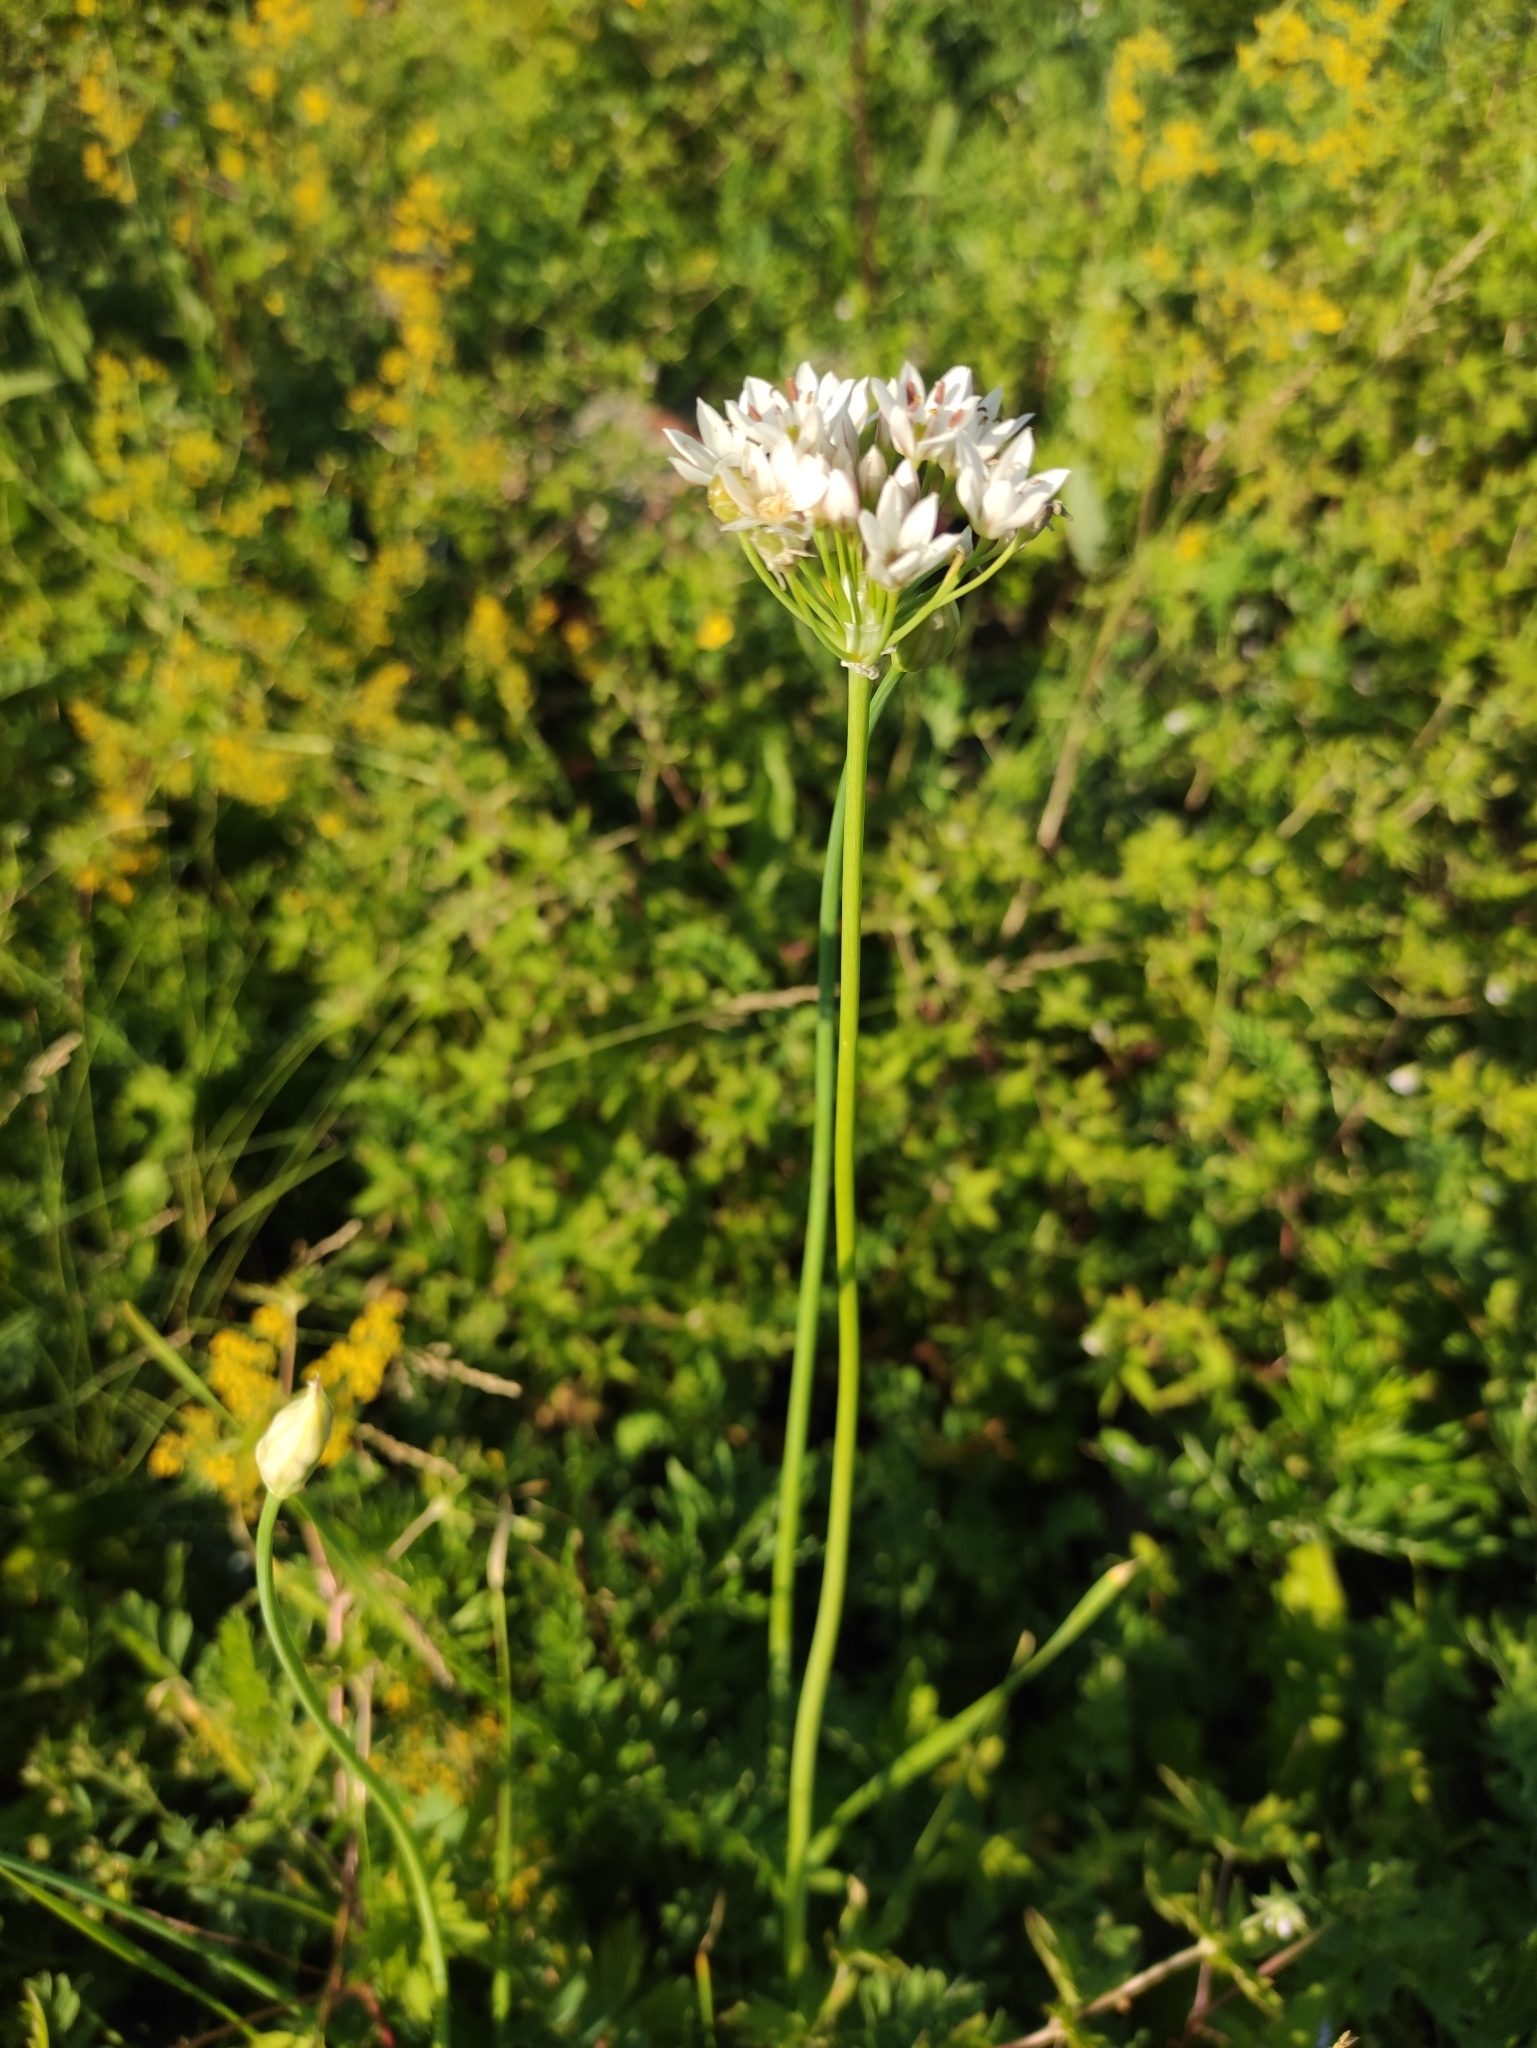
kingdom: Plantae
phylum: Tracheophyta
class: Liliopsida
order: Asparagales
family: Amaryllidaceae
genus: Allium
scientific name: Allium ramosum
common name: Fragrant garlic
